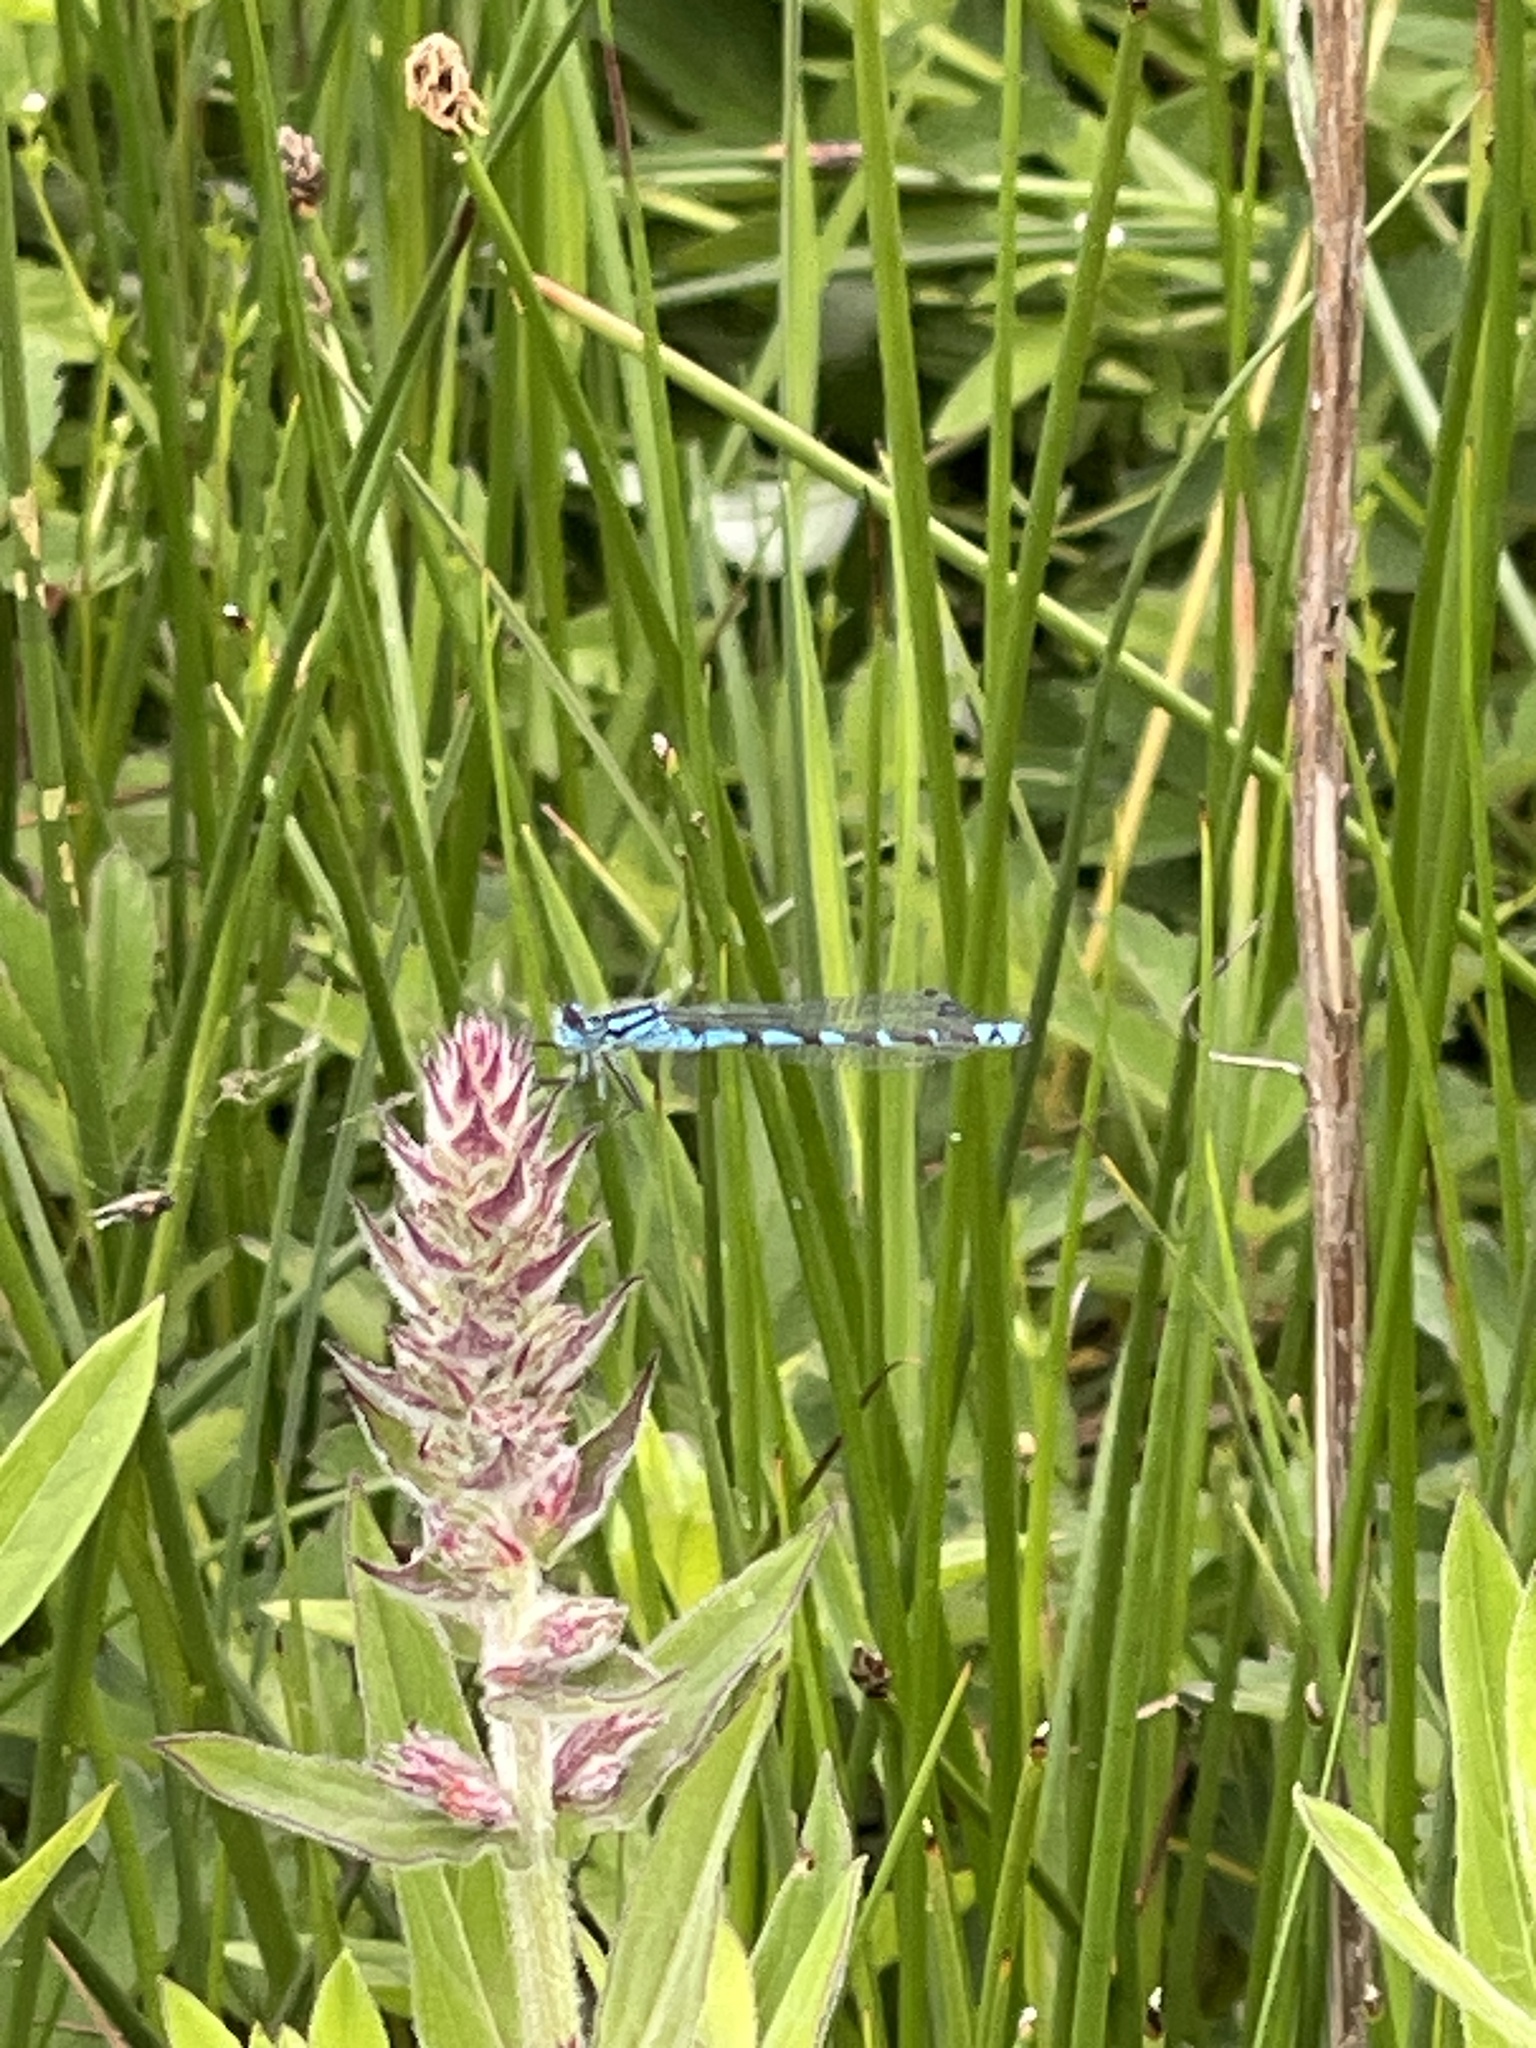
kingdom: Animalia
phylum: Arthropoda
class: Insecta
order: Odonata
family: Coenagrionidae
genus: Enallagma
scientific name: Enallagma cyathigerum
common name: Common blue damselfly
